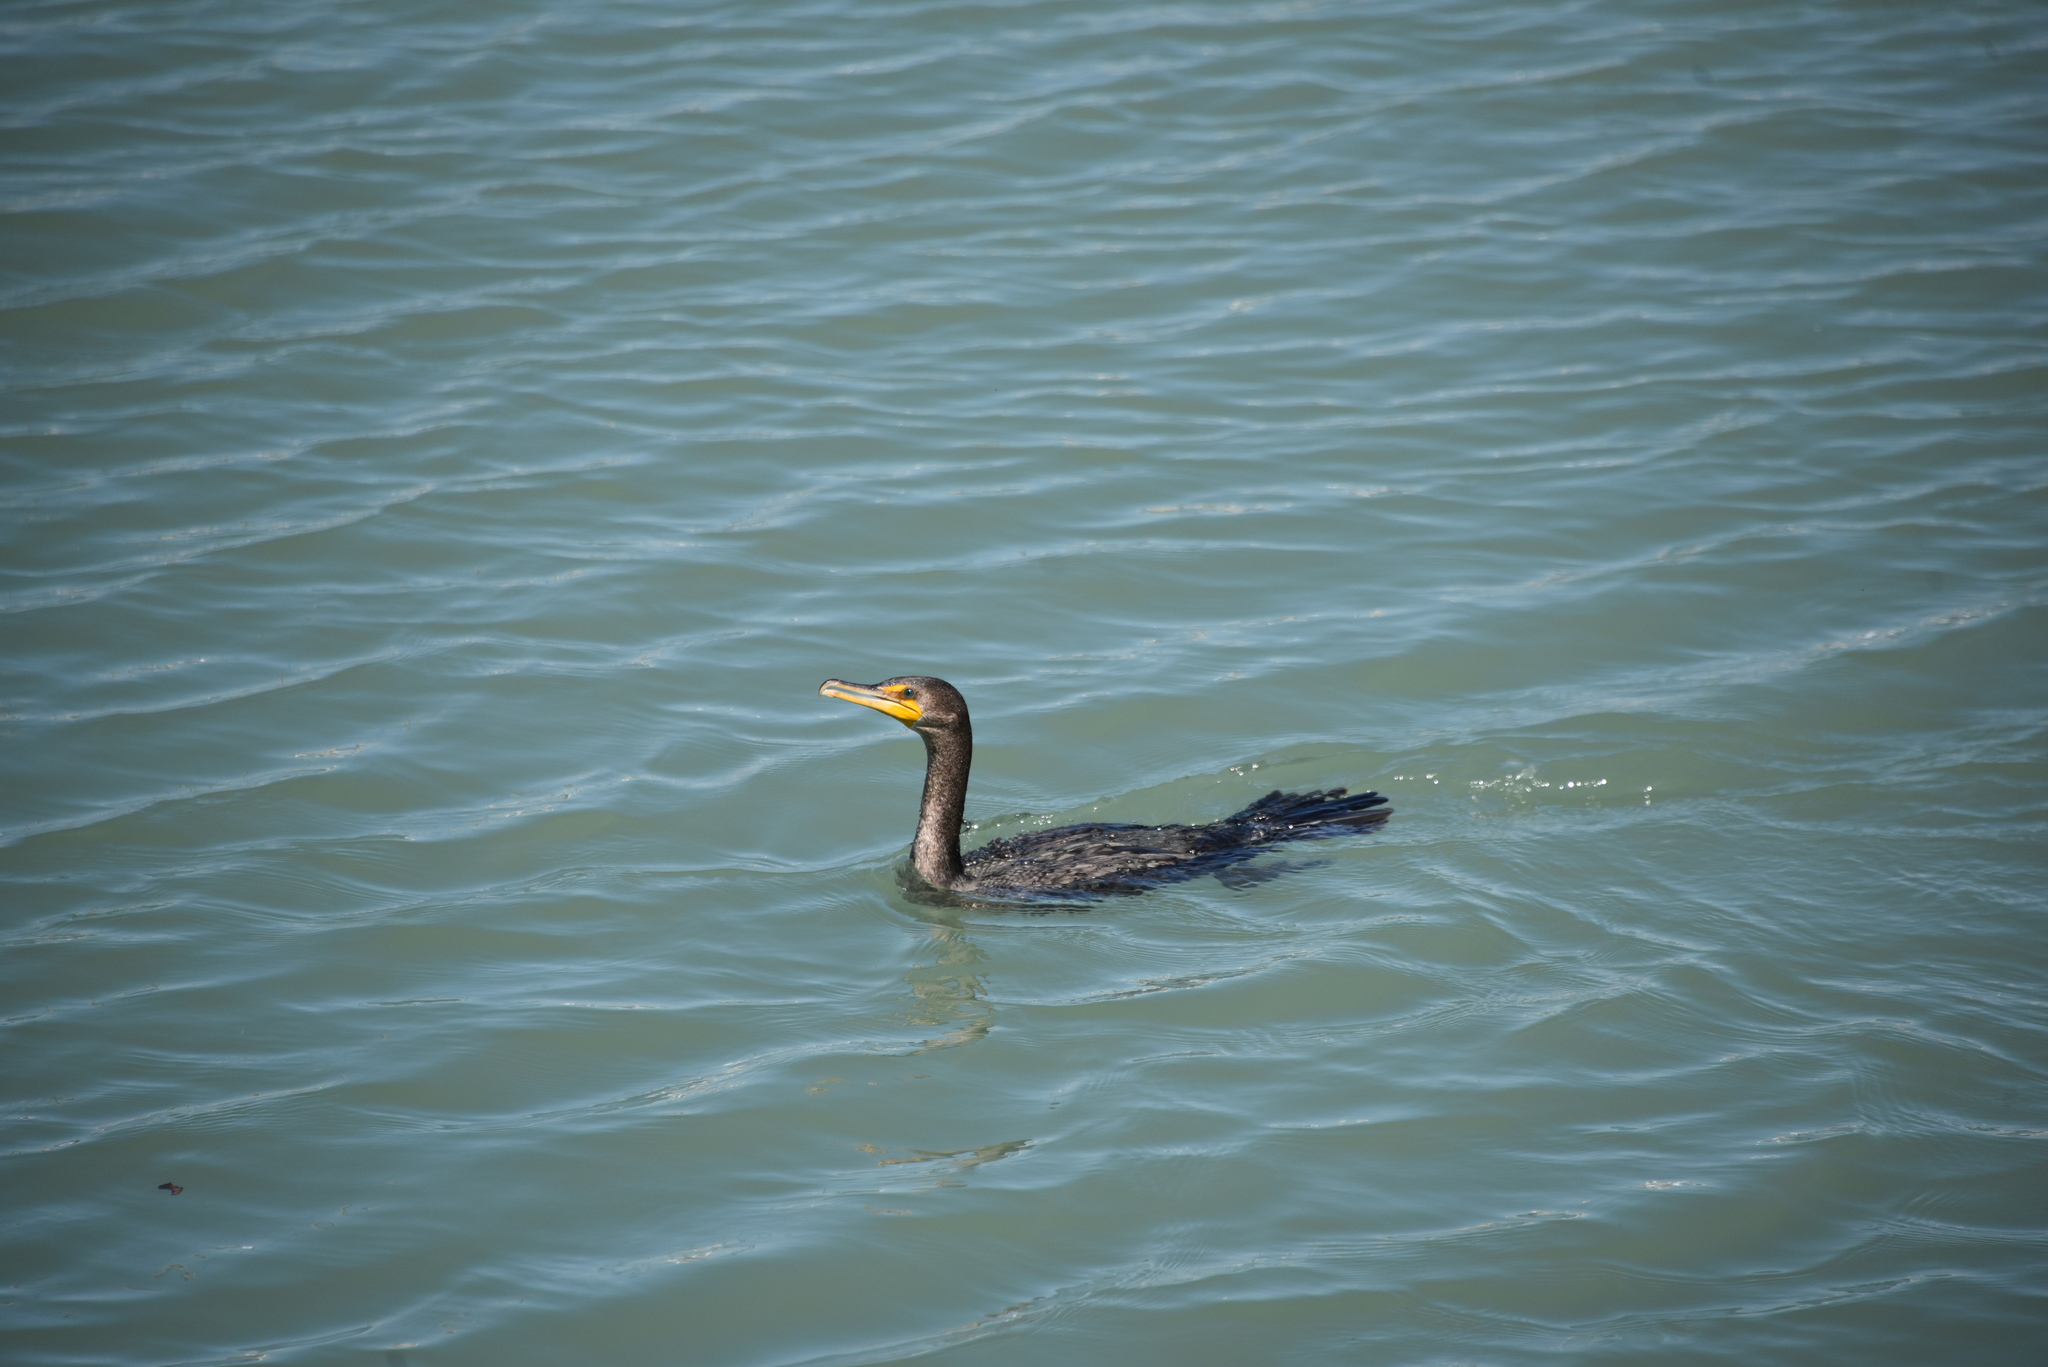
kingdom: Animalia
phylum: Chordata
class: Aves
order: Suliformes
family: Phalacrocoracidae
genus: Phalacrocorax
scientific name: Phalacrocorax auritus
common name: Double-crested cormorant
